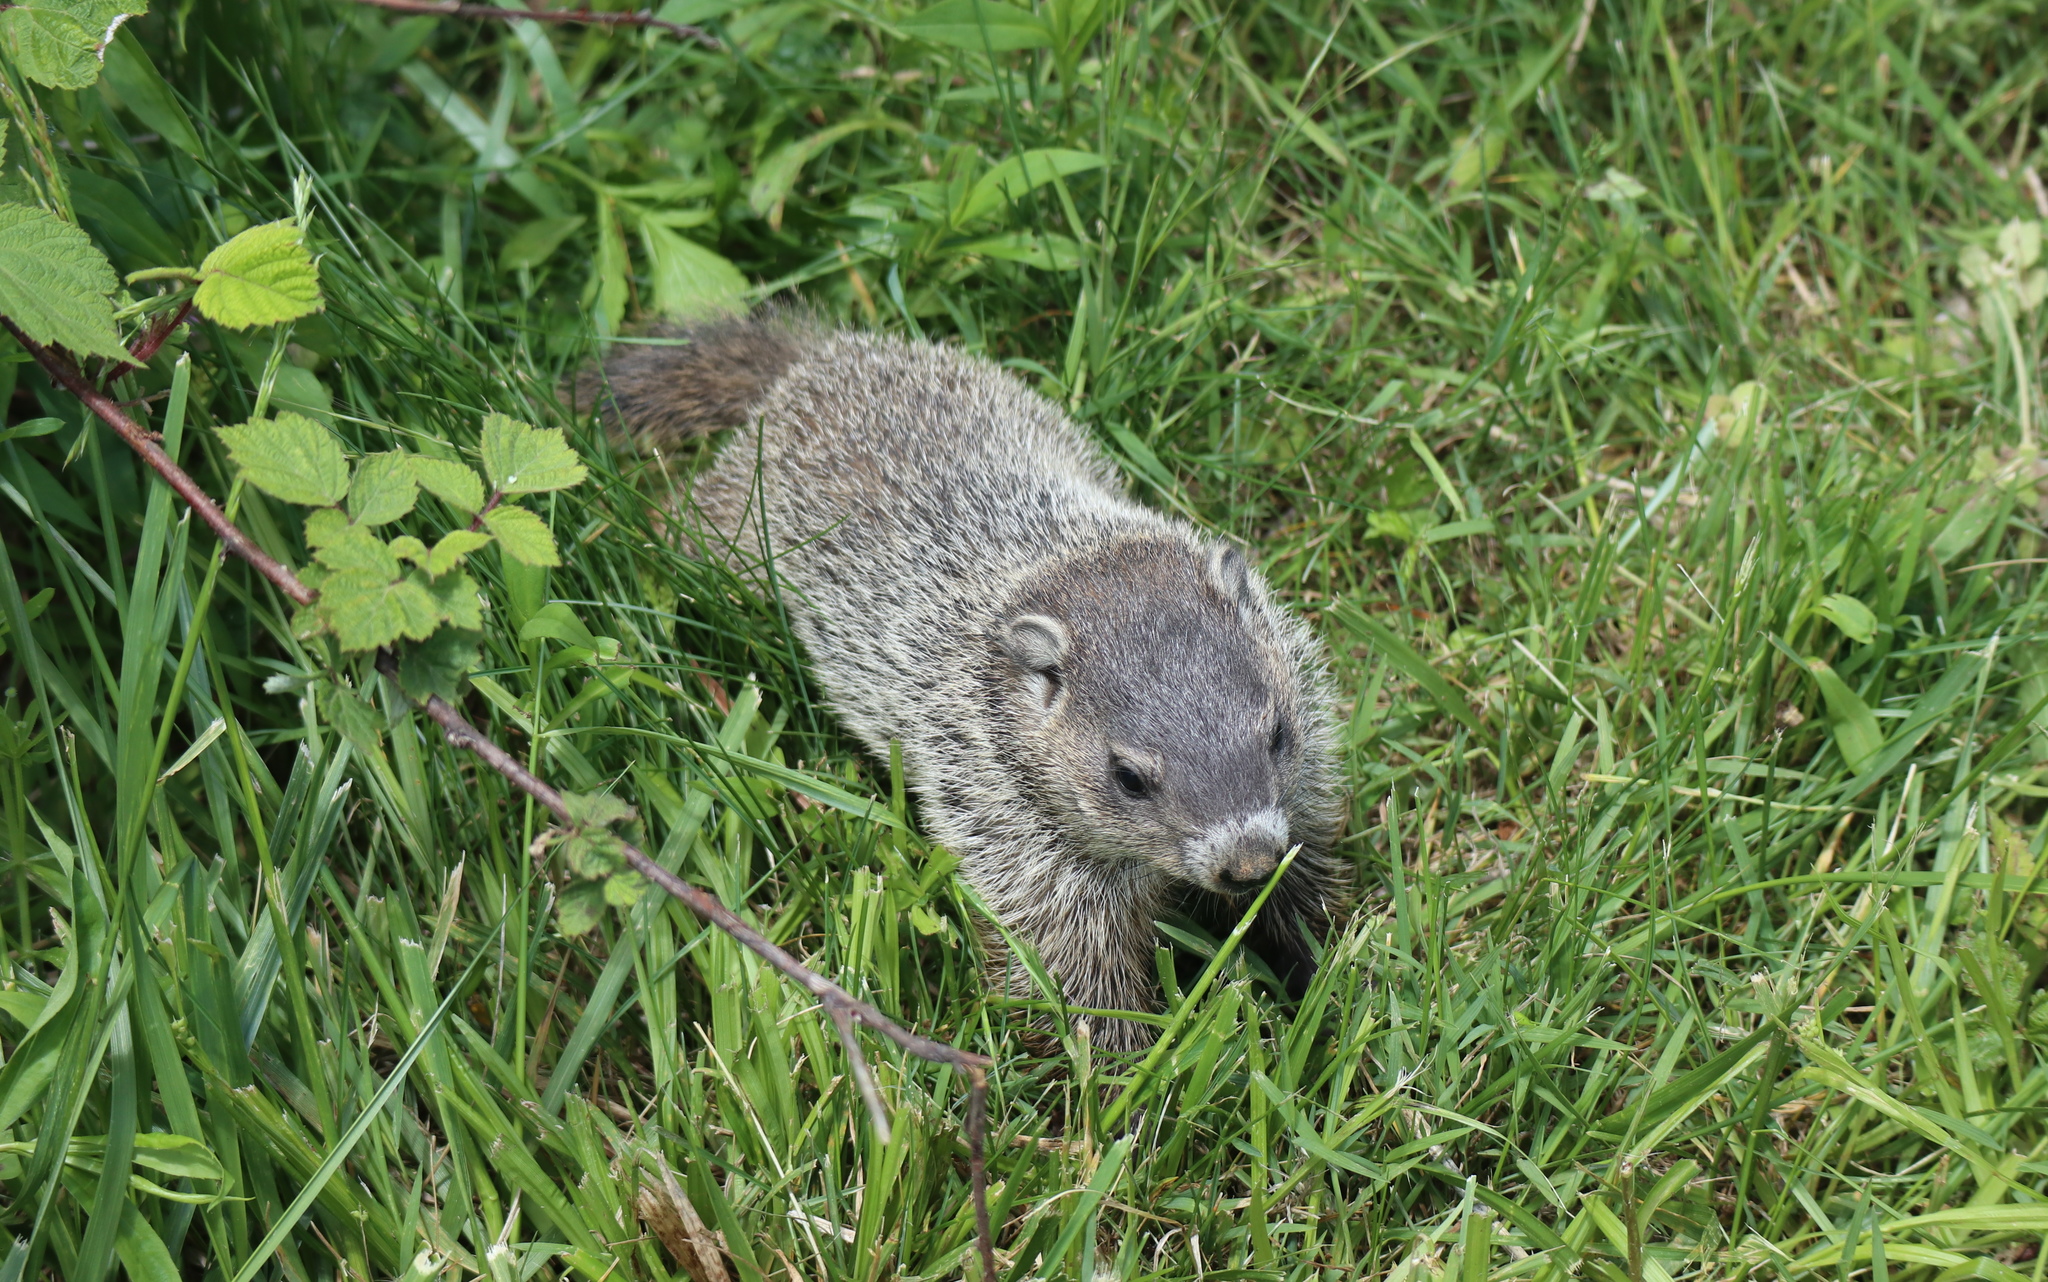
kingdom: Animalia
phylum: Chordata
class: Mammalia
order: Rodentia
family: Sciuridae
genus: Marmota
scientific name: Marmota monax
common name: Groundhog
